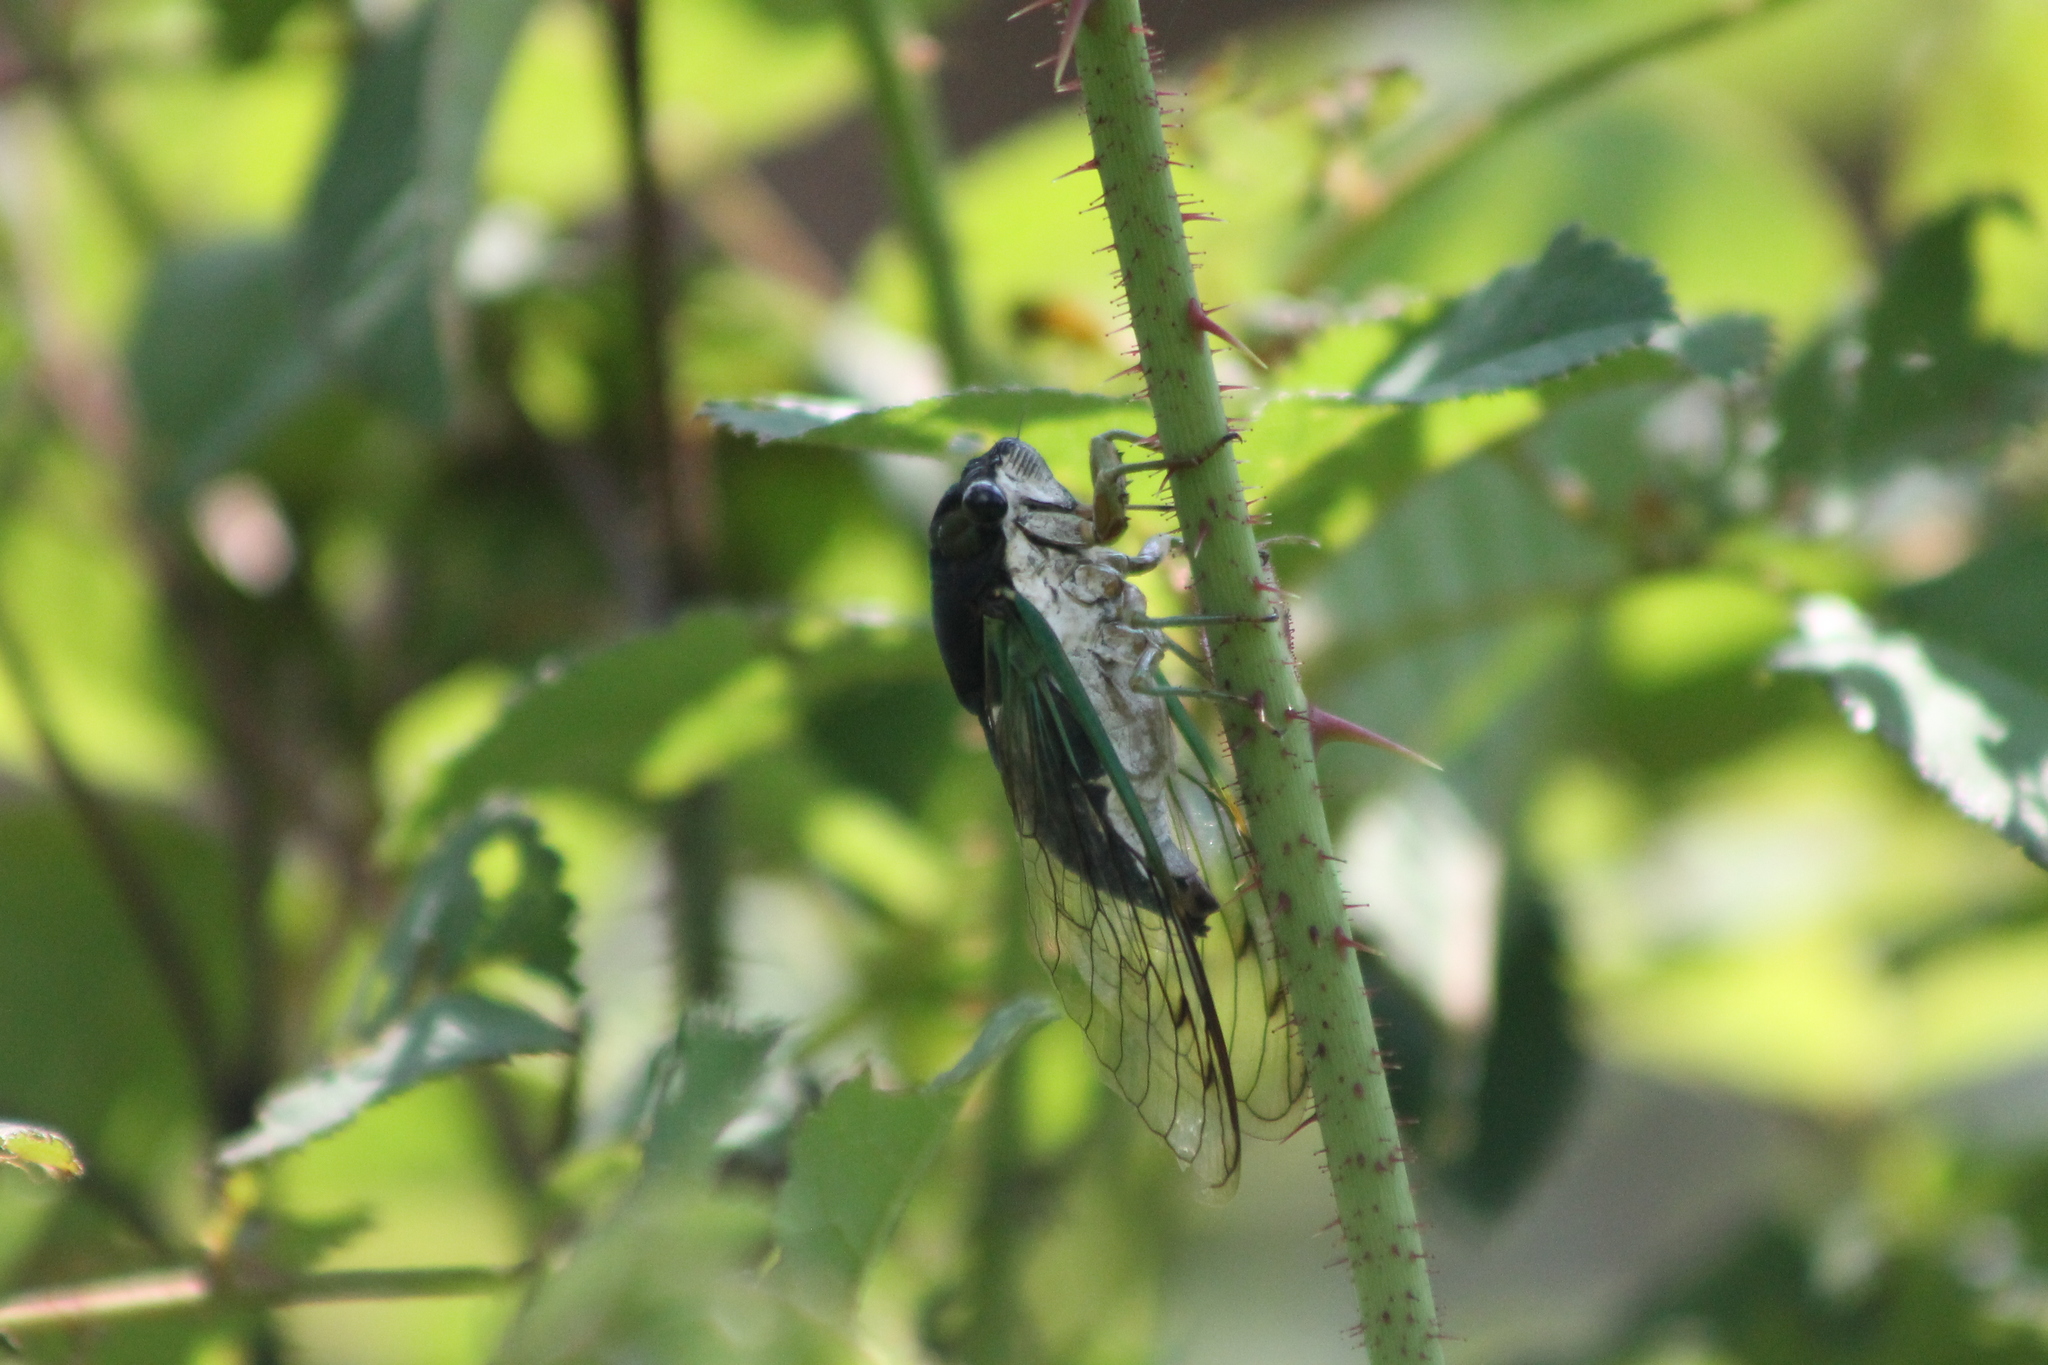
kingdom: Animalia
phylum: Arthropoda
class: Insecta
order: Hemiptera
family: Cicadidae
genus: Neotibicen
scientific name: Neotibicen tibicen
